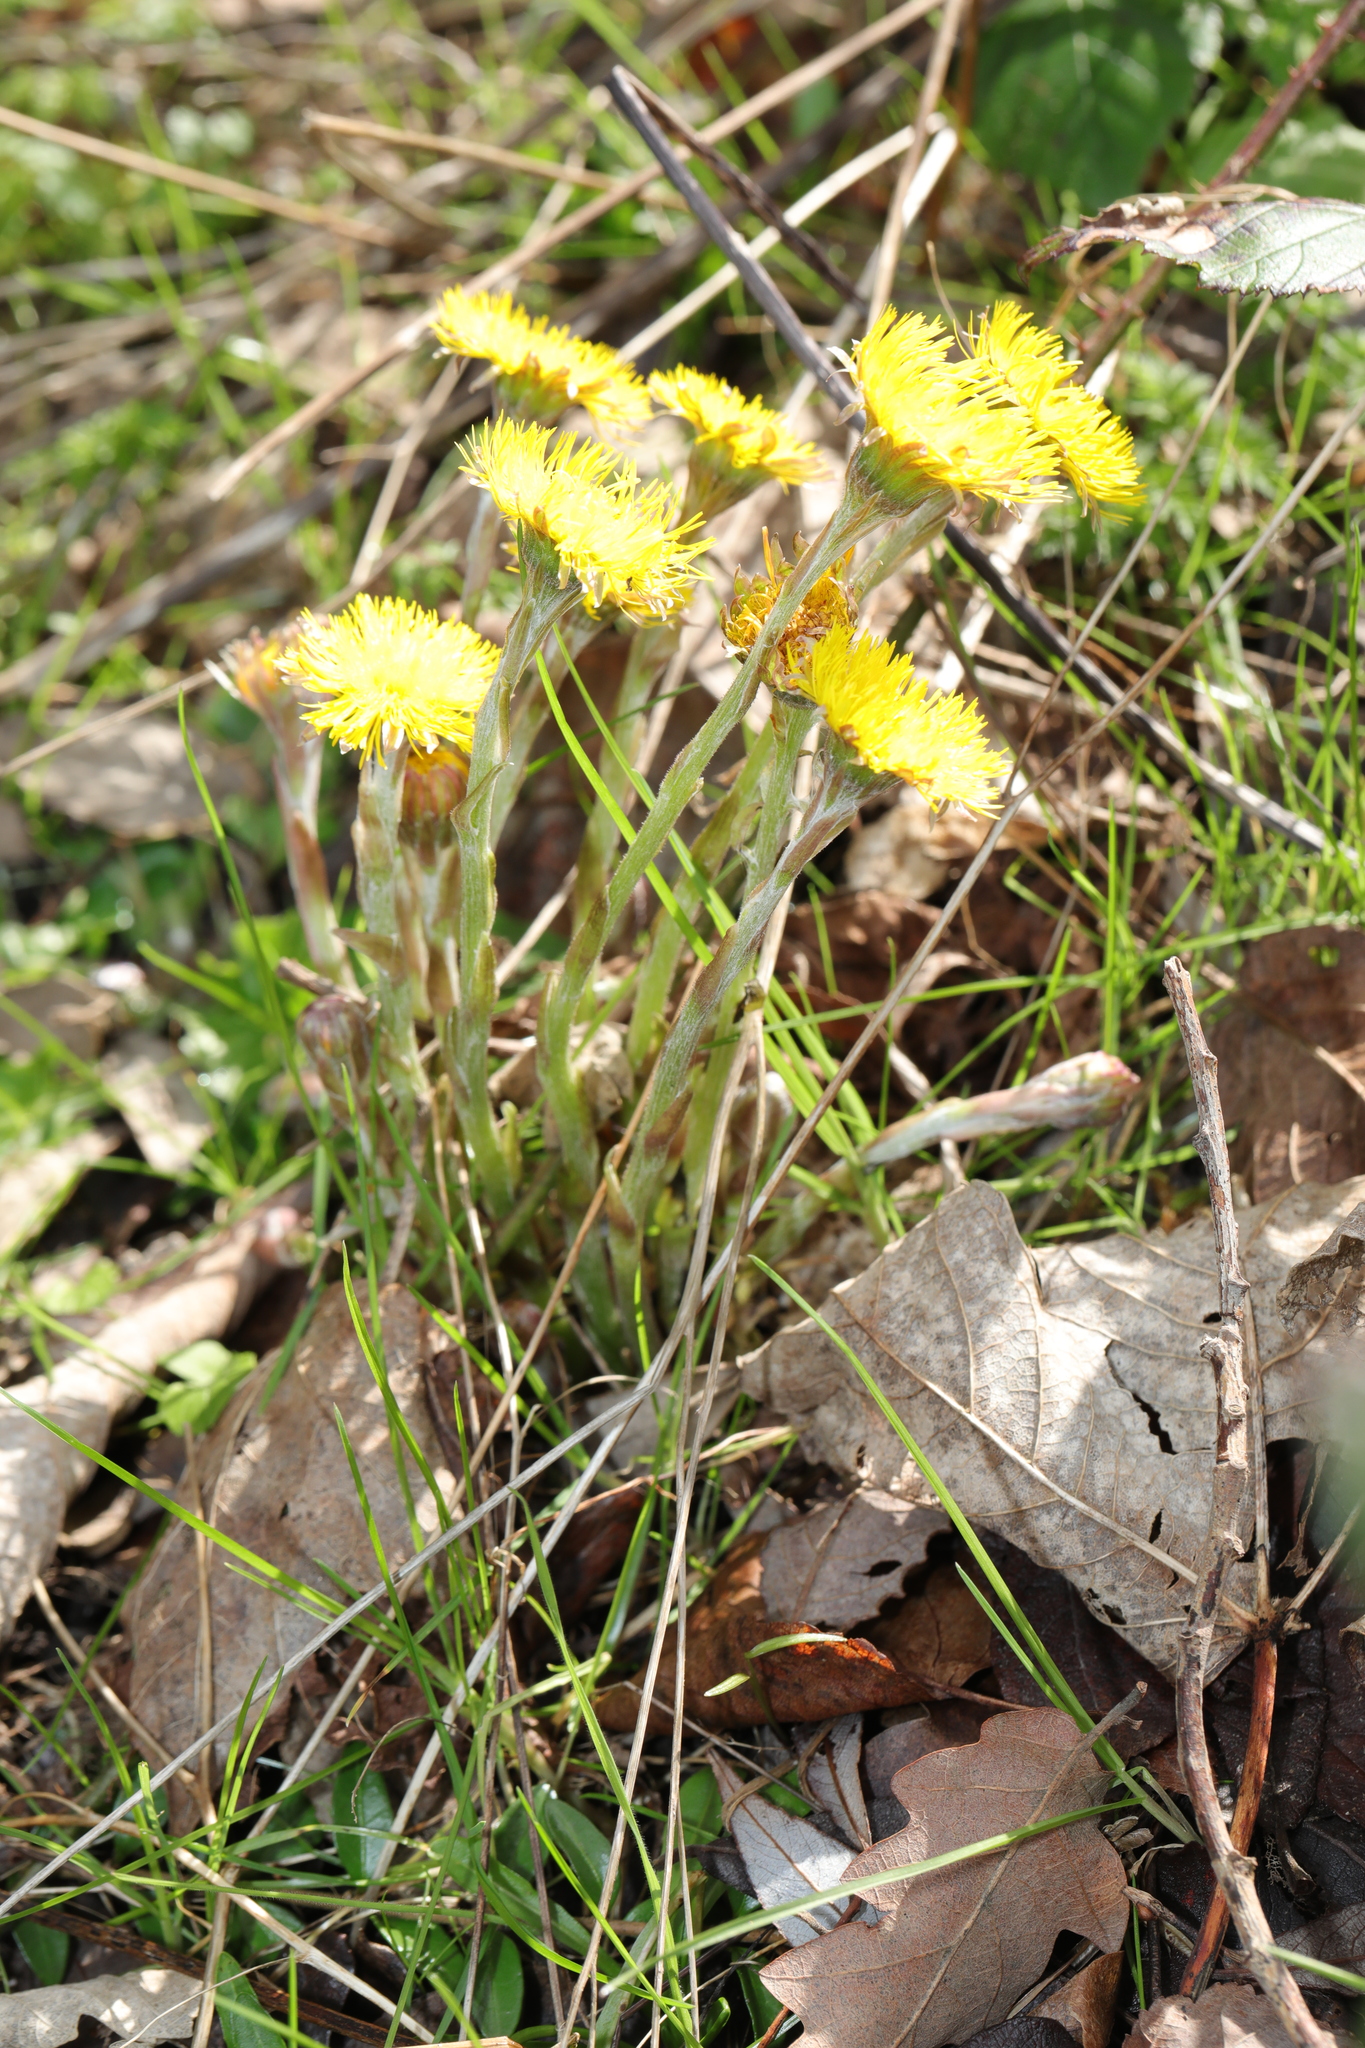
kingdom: Plantae
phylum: Tracheophyta
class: Magnoliopsida
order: Asterales
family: Asteraceae
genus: Tussilago
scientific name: Tussilago farfara
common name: Coltsfoot
